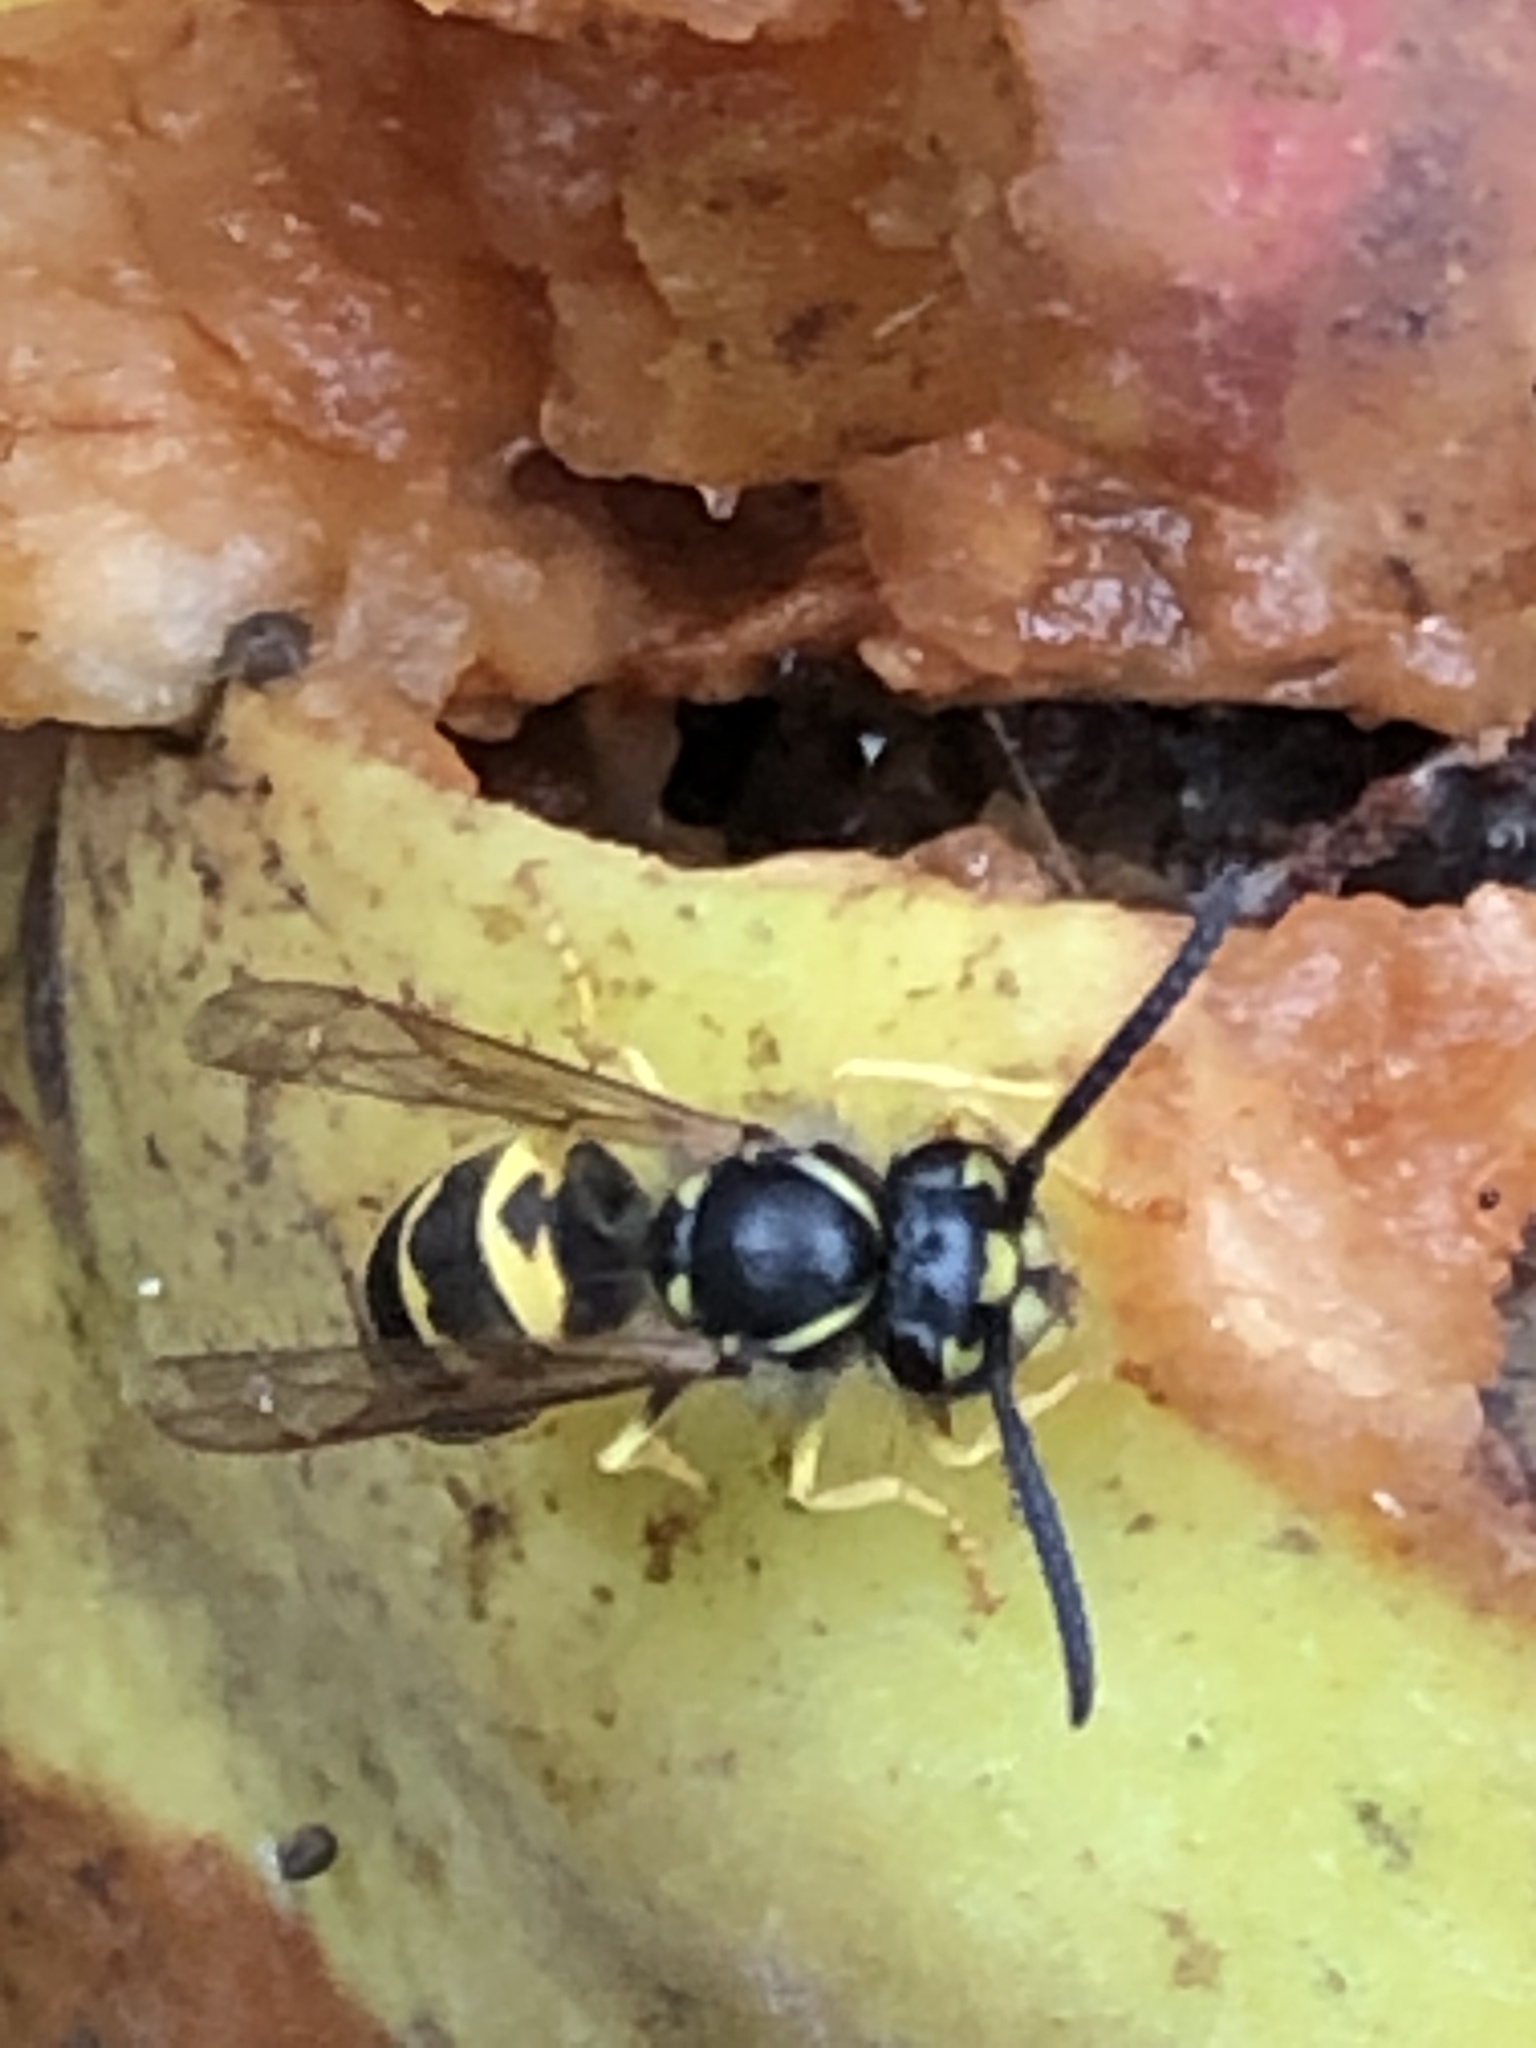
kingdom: Animalia
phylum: Arthropoda
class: Insecta
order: Hymenoptera
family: Vespidae
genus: Vespula
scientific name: Vespula alascensis
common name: Alaska yellowjacket
